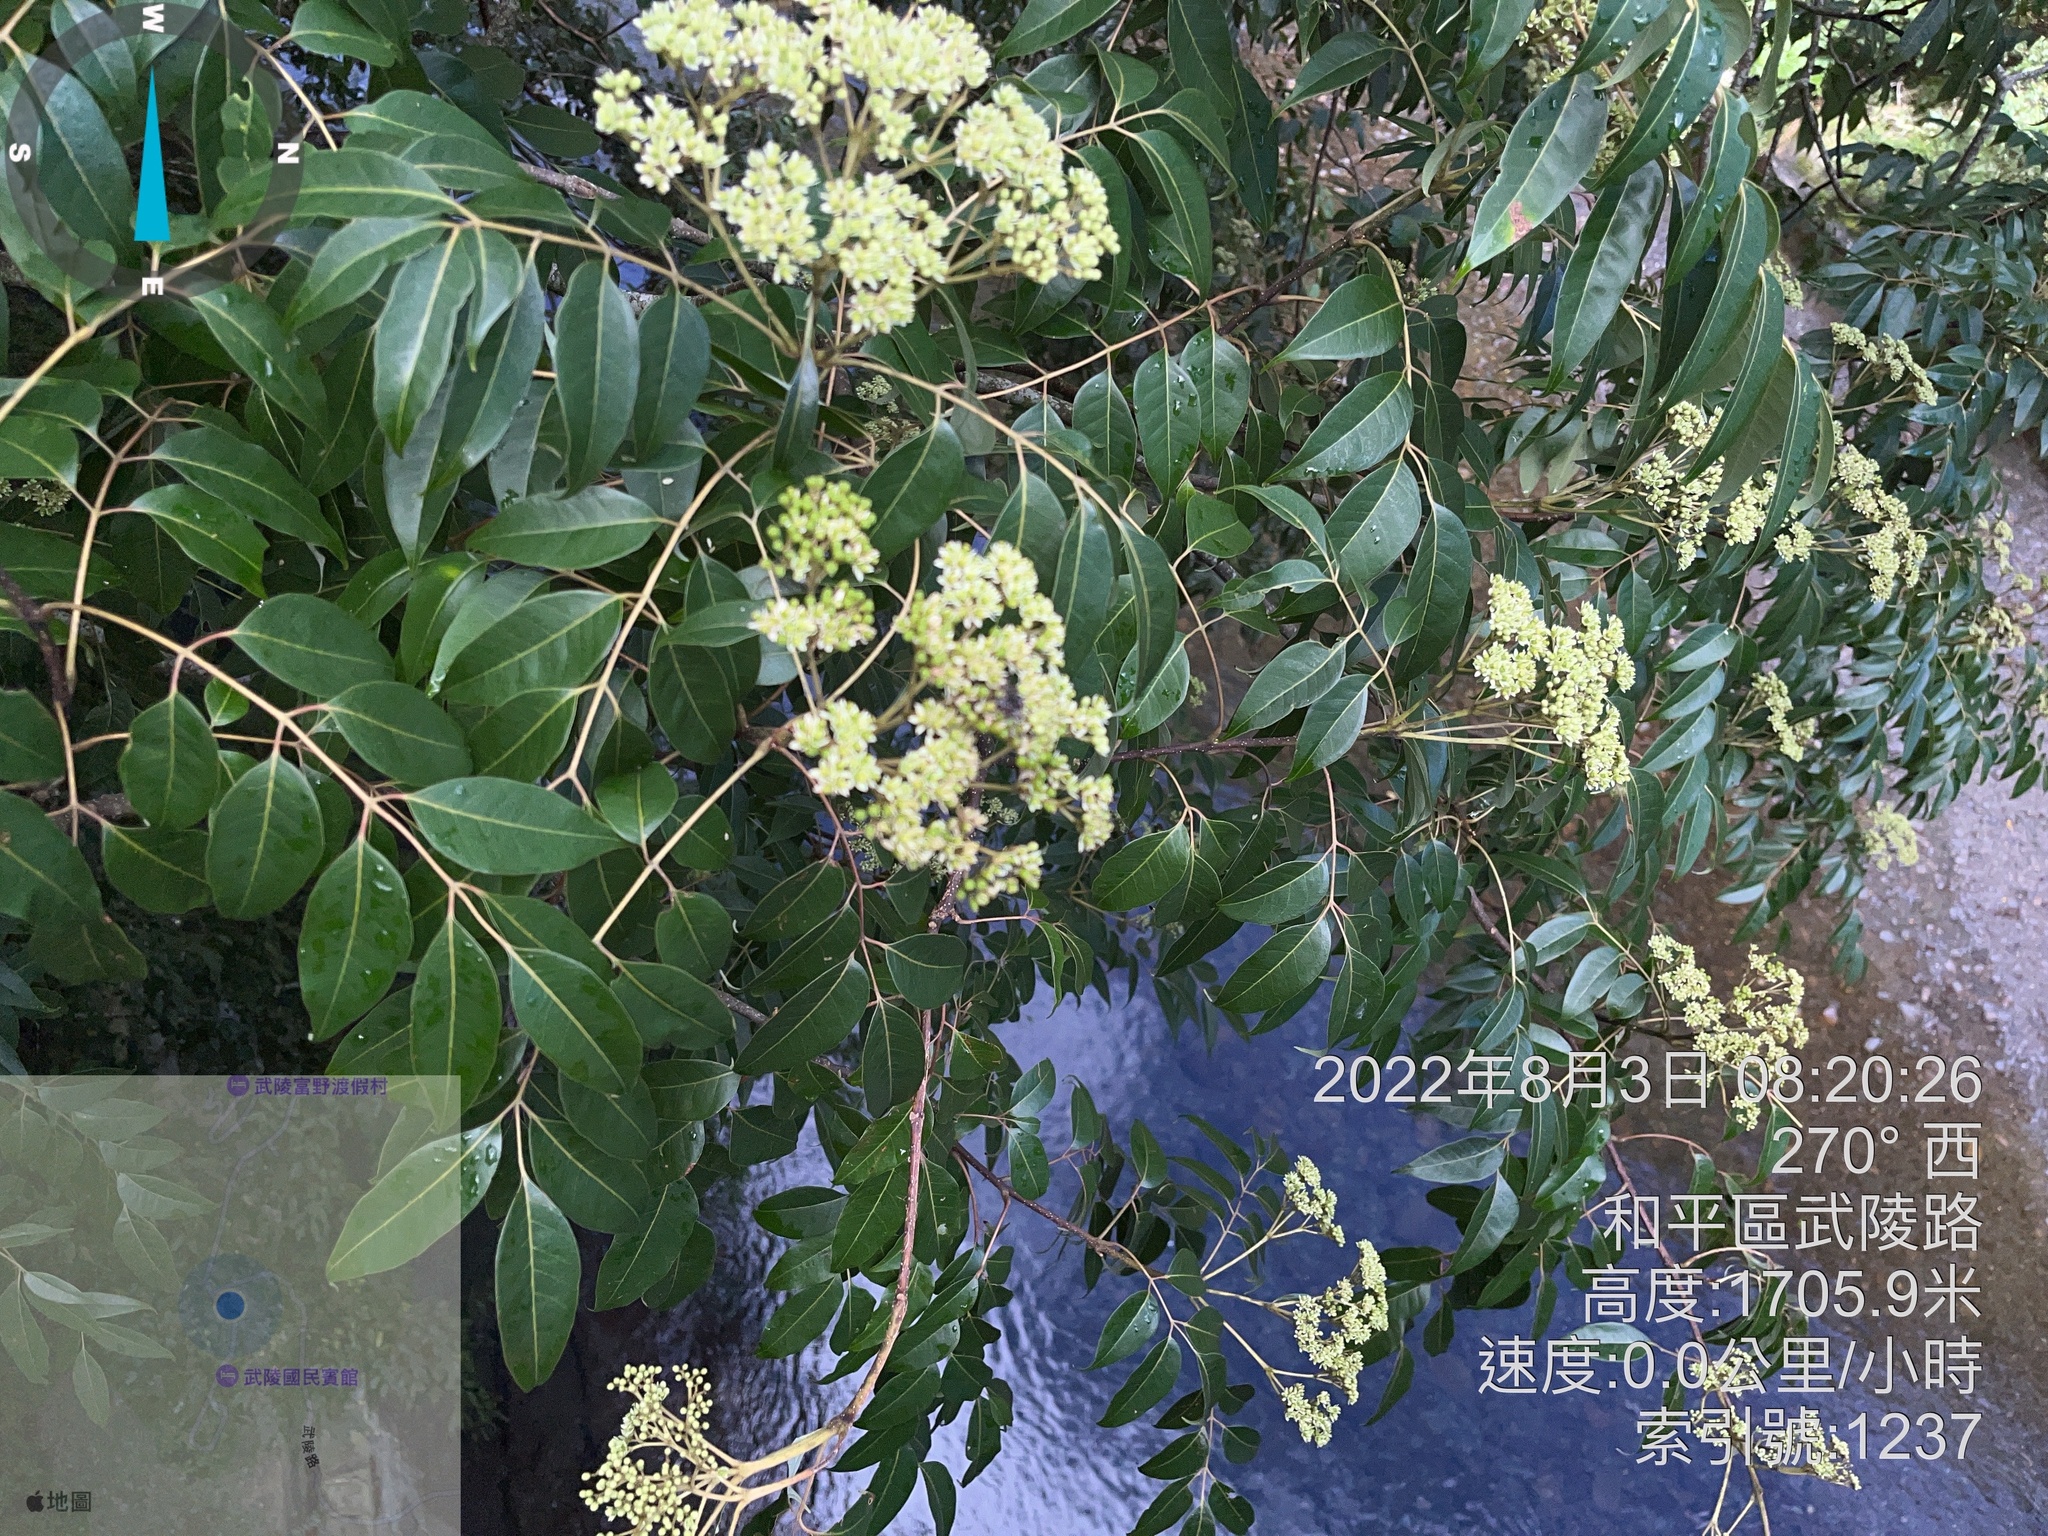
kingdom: Plantae
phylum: Tracheophyta
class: Magnoliopsida
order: Sapindales
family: Rutaceae
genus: Tetradium
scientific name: Tetradium glabrifolium
